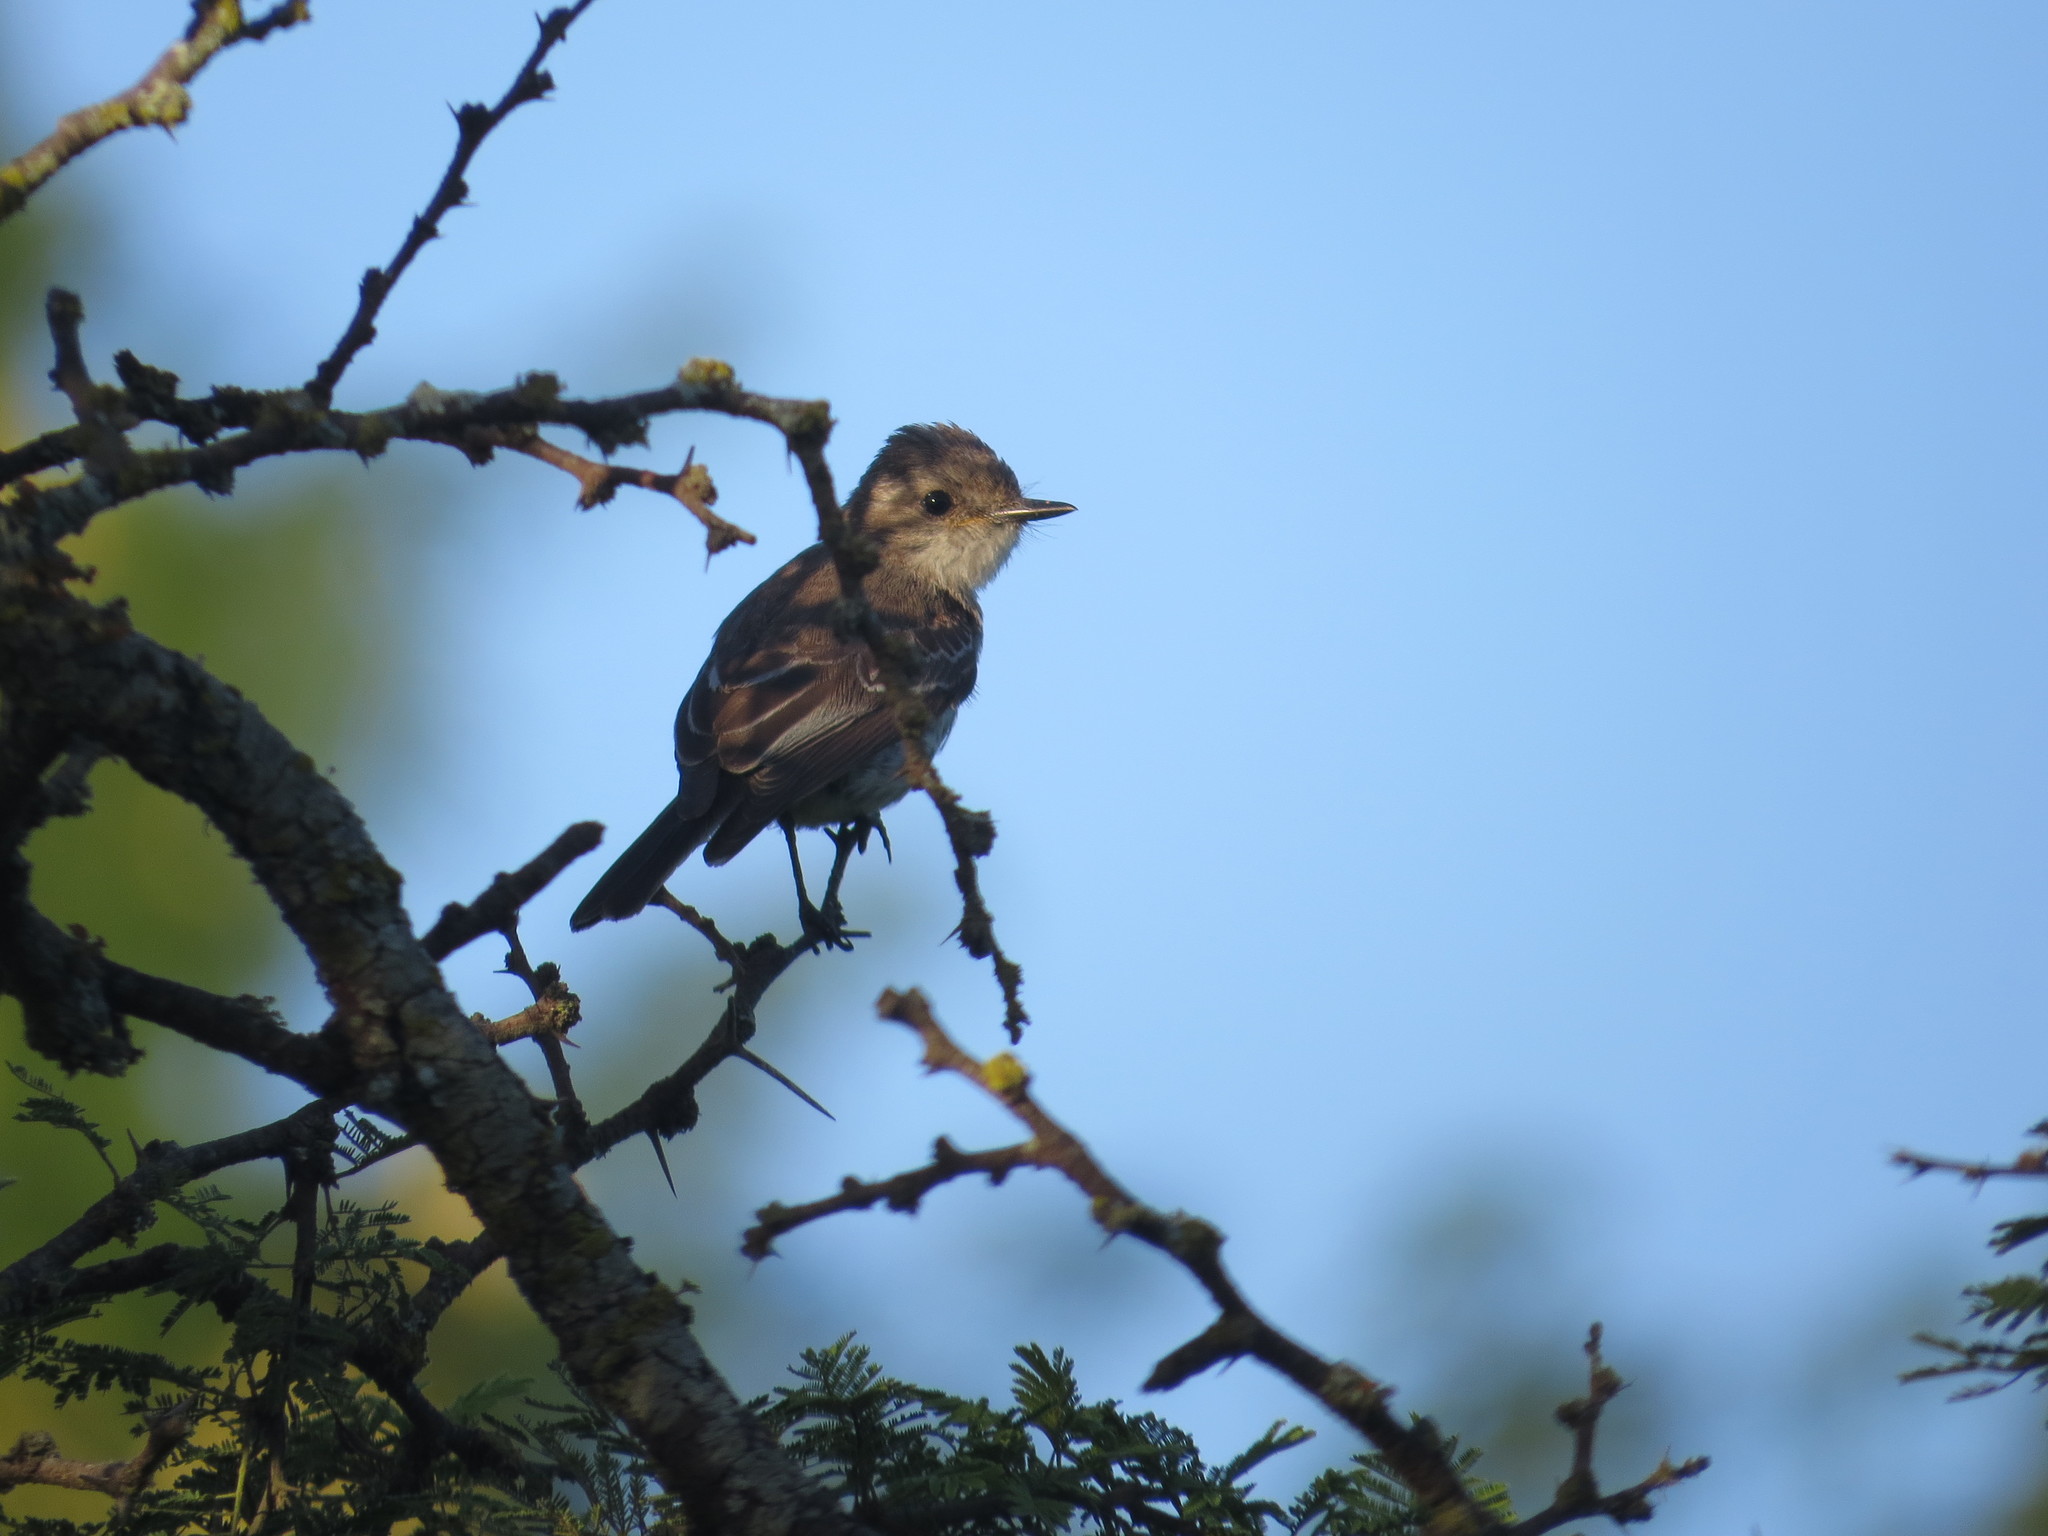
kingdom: Animalia
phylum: Chordata
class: Aves
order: Passeriformes
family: Tyrannidae
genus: Pyrocephalus
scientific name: Pyrocephalus rubinus
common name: Vermilion flycatcher
